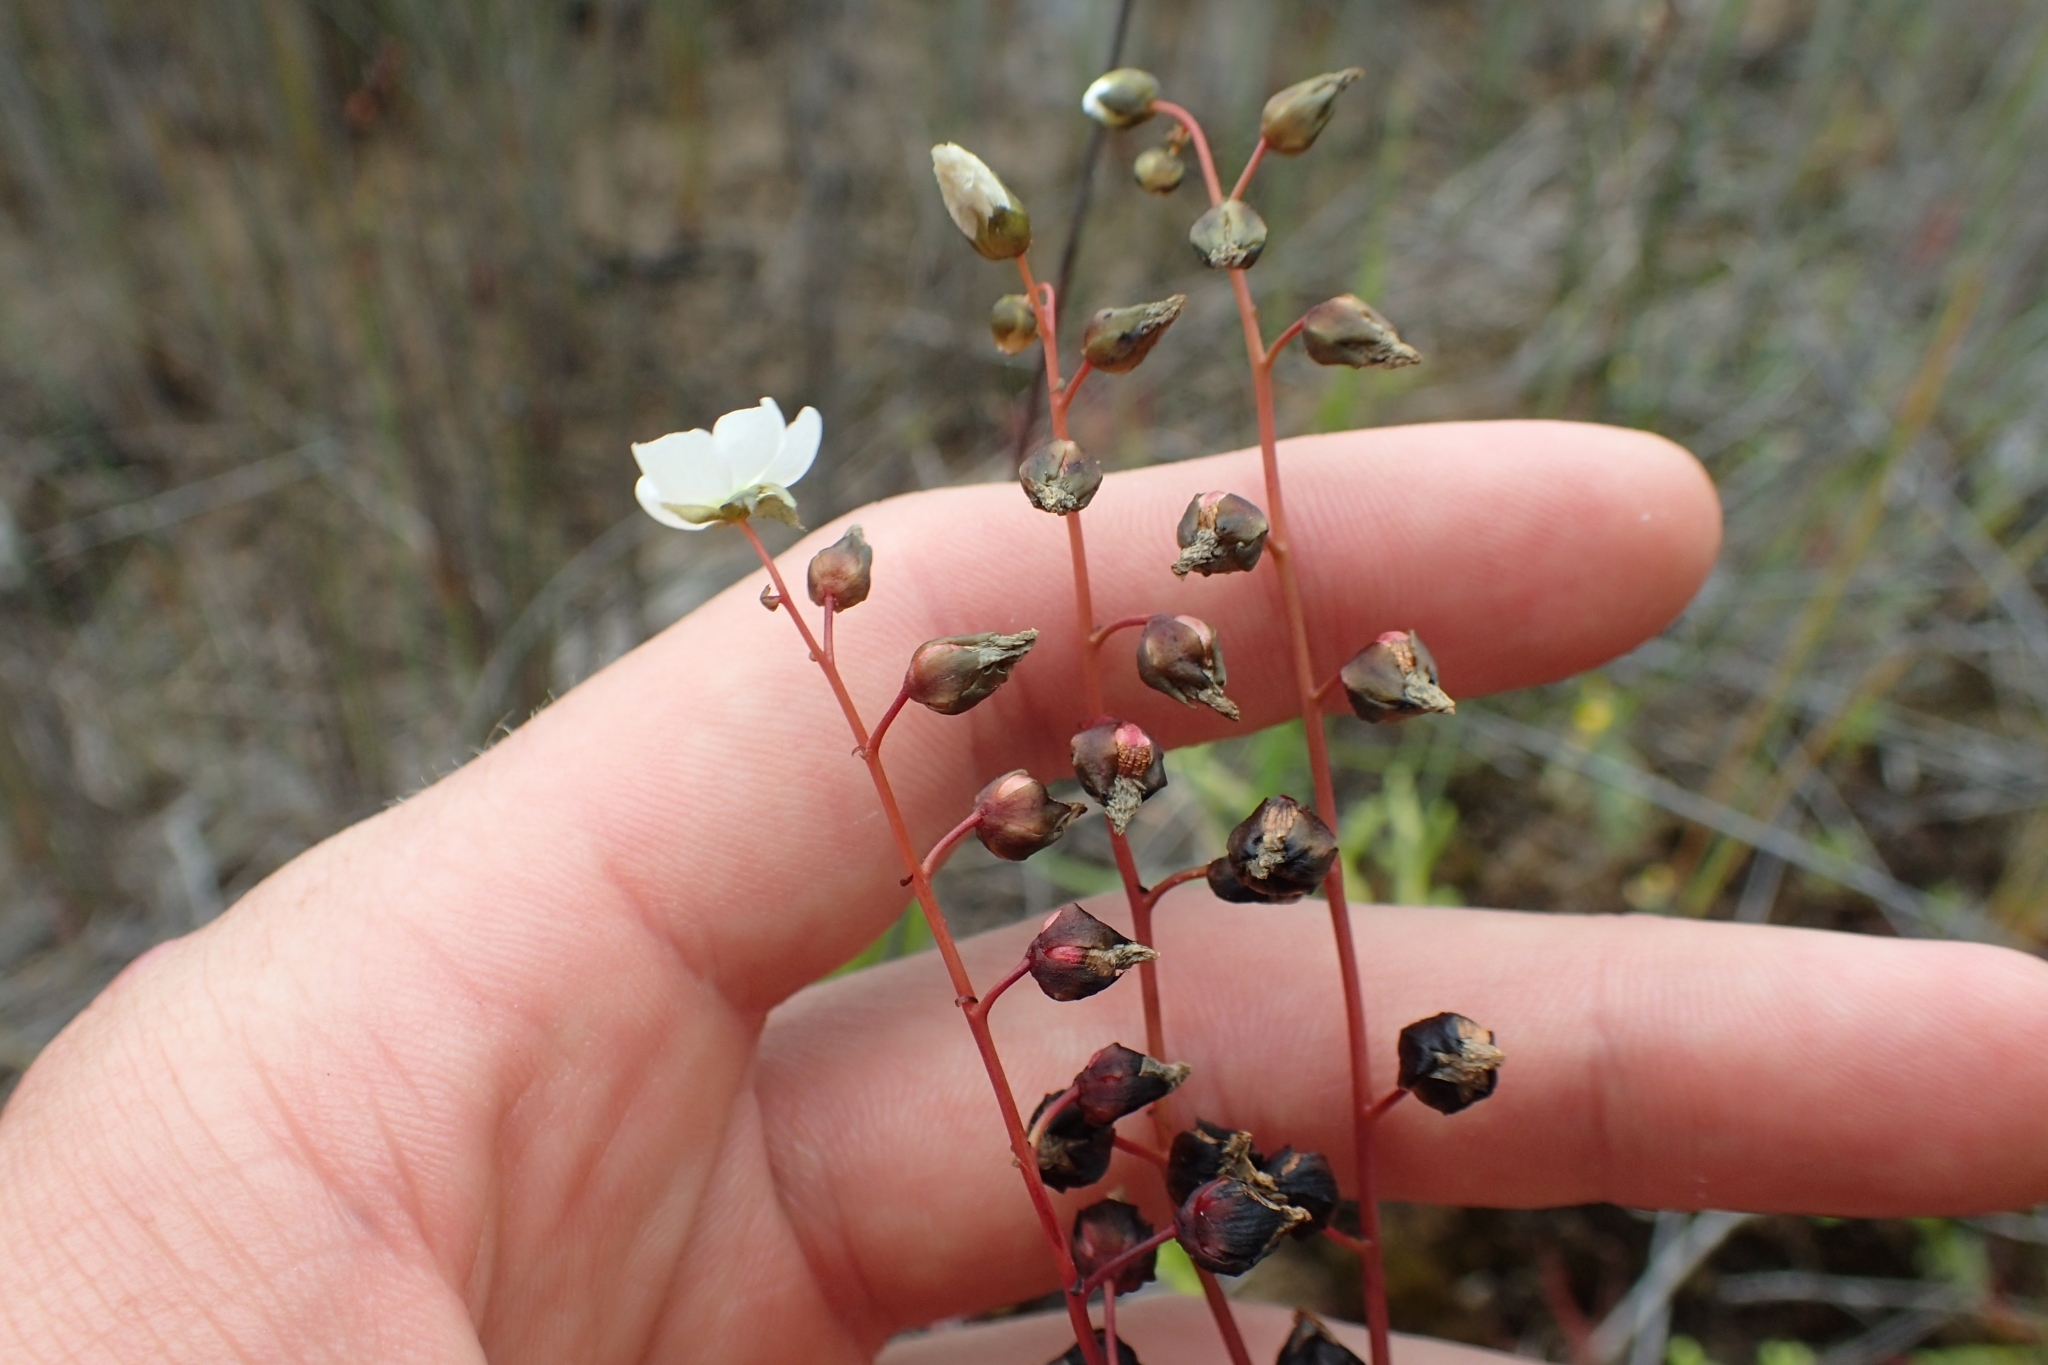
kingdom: Plantae
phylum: Tracheophyta
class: Magnoliopsida
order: Caryophyllales
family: Droseraceae
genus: Drosera
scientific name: Drosera binata
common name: Forked sundew
